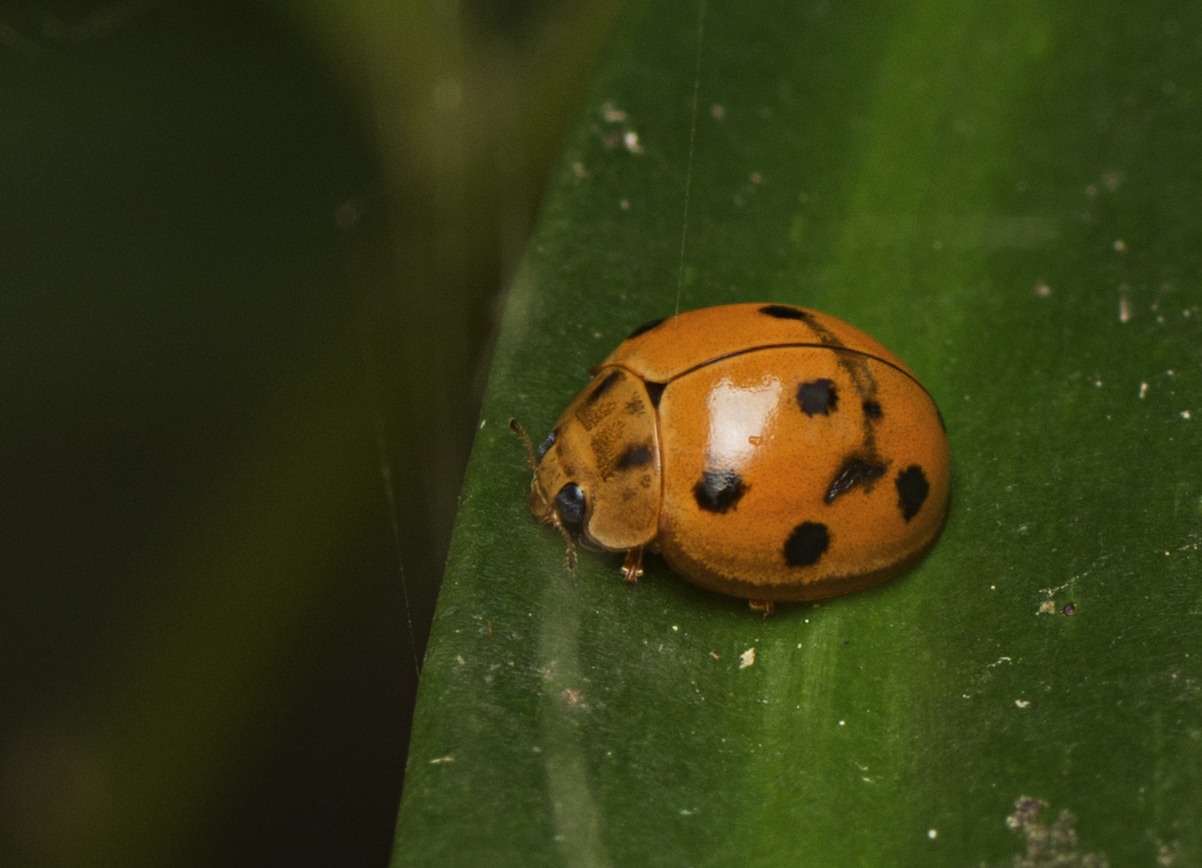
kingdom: Animalia
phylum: Arthropoda
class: Insecta
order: Coleoptera
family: Coccinellidae
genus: Coelophora
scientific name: Coelophora inaequalis
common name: Common australian lady beetle
